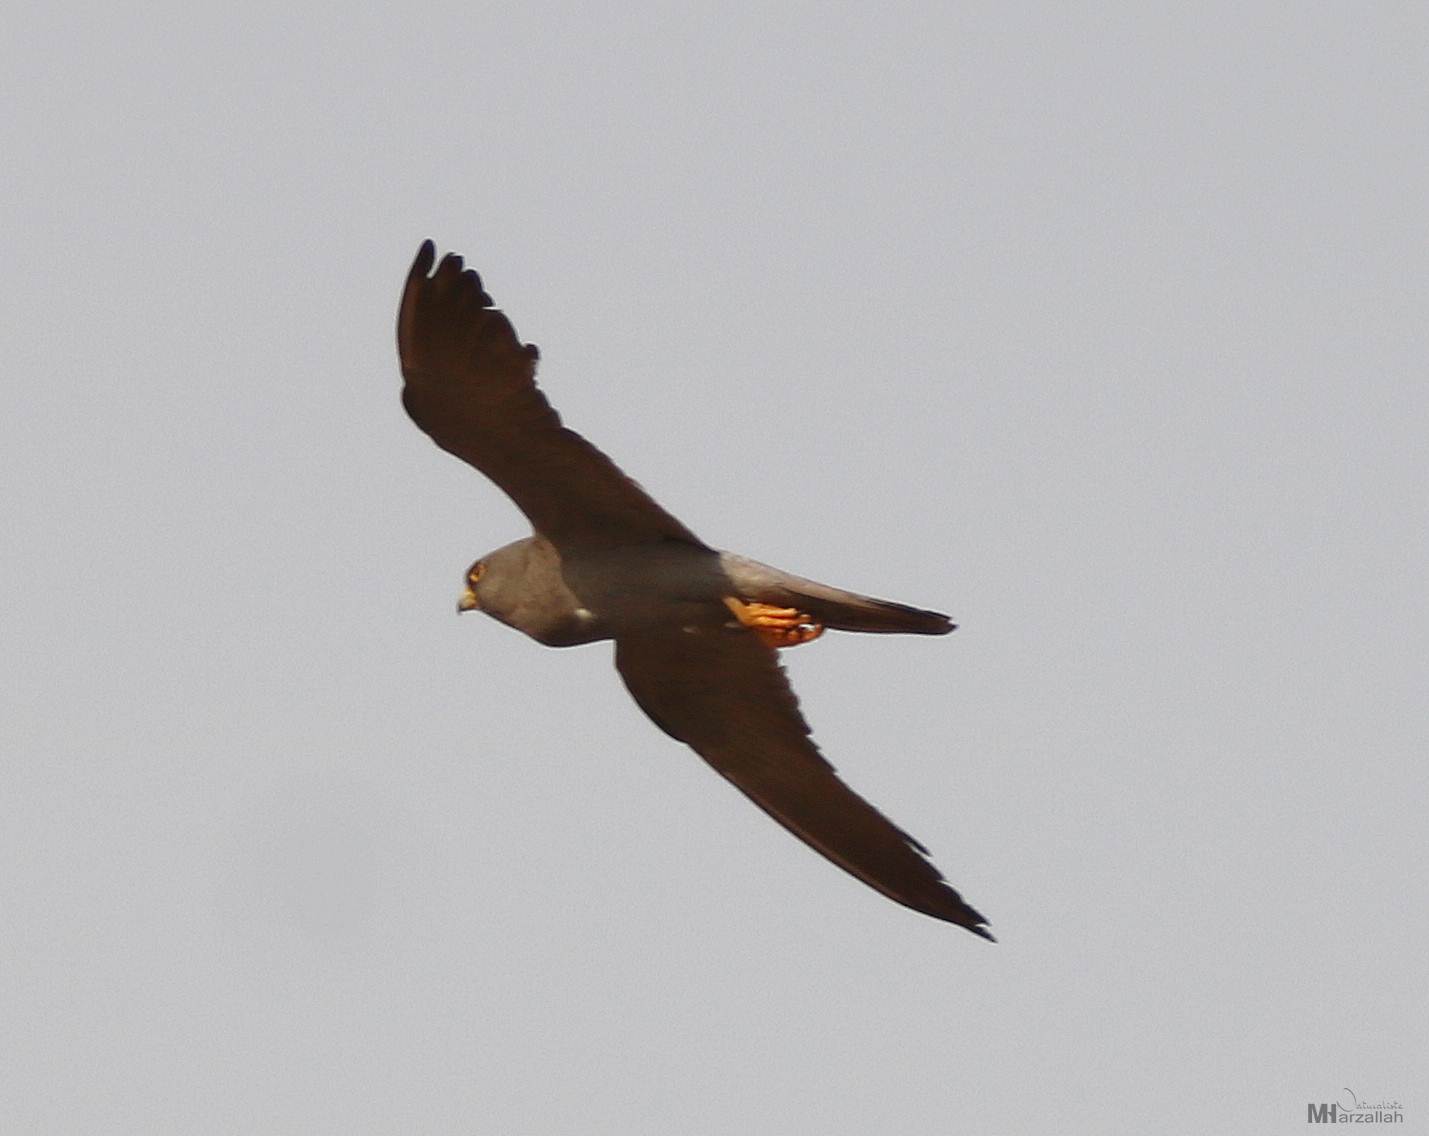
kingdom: Animalia
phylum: Chordata
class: Aves
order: Falconiformes
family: Falconidae
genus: Falco
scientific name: Falco concolor
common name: Sooty falcon
